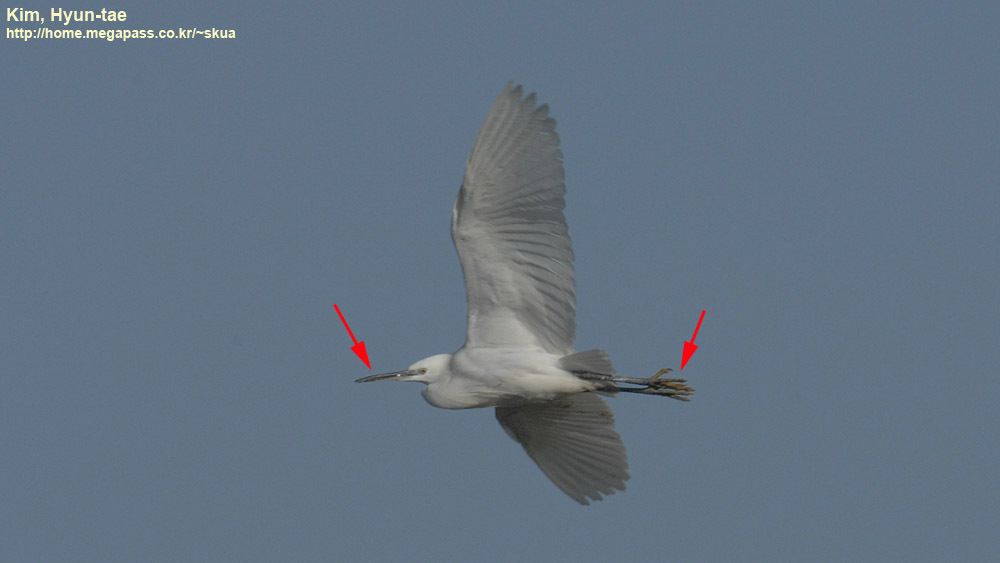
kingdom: Animalia
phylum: Chordata
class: Aves
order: Pelecaniformes
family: Ardeidae
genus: Egretta
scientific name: Egretta garzetta
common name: Little egret
